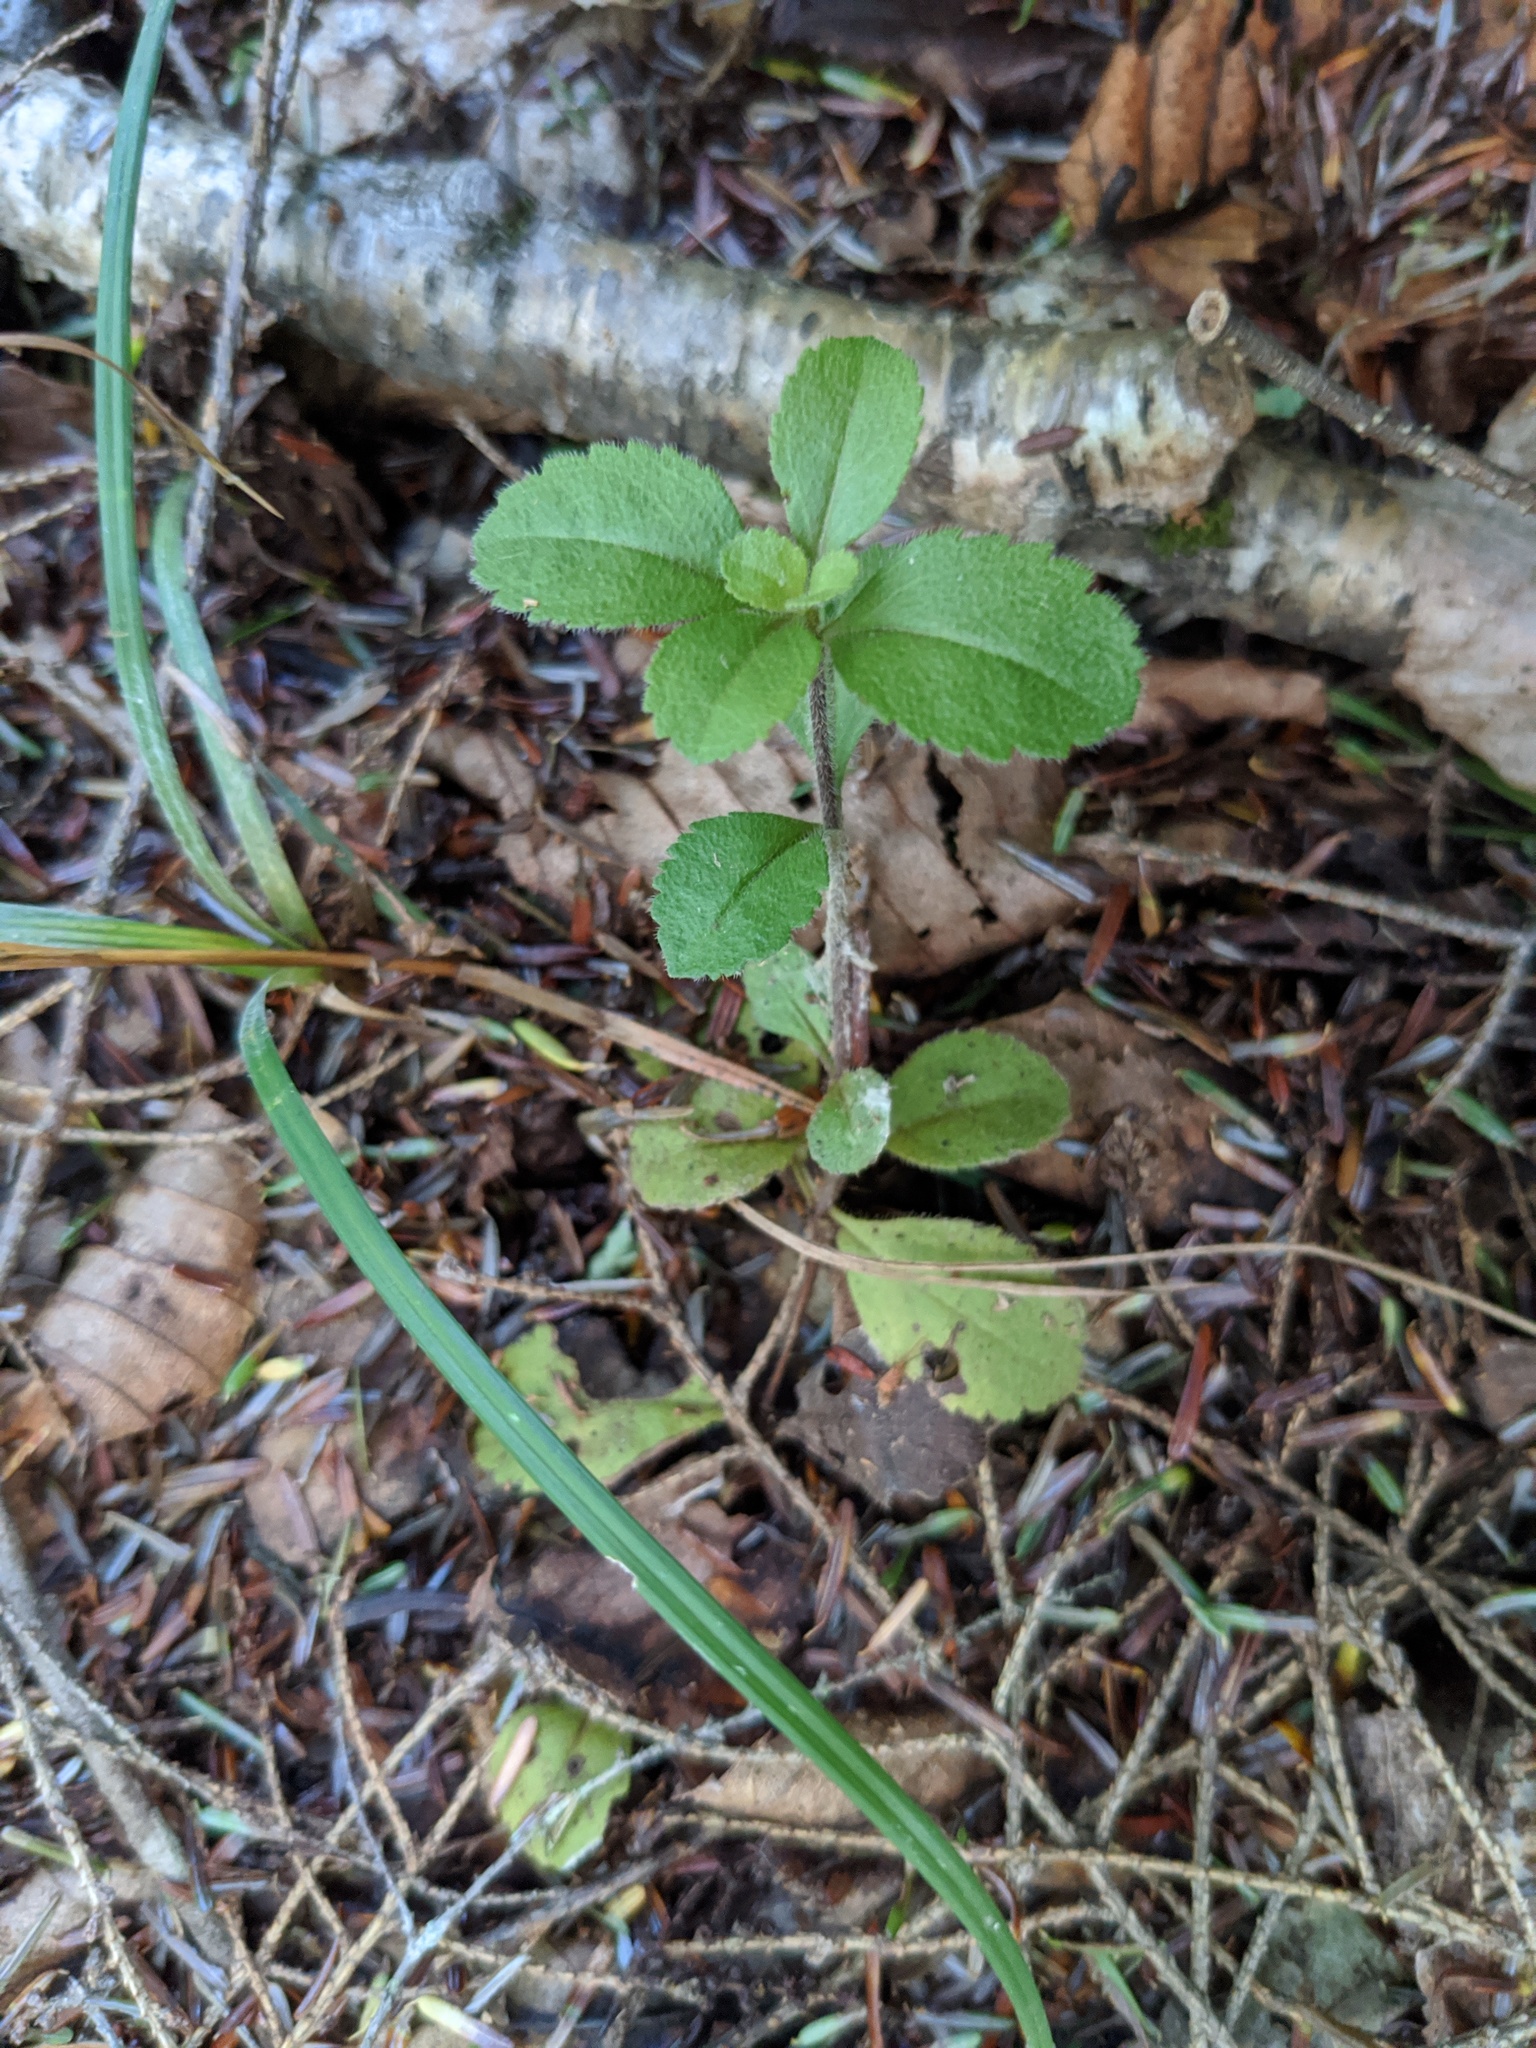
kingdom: Plantae
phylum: Tracheophyta
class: Magnoliopsida
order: Lamiales
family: Plantaginaceae
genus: Veronica
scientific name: Veronica officinalis
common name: Common speedwell
